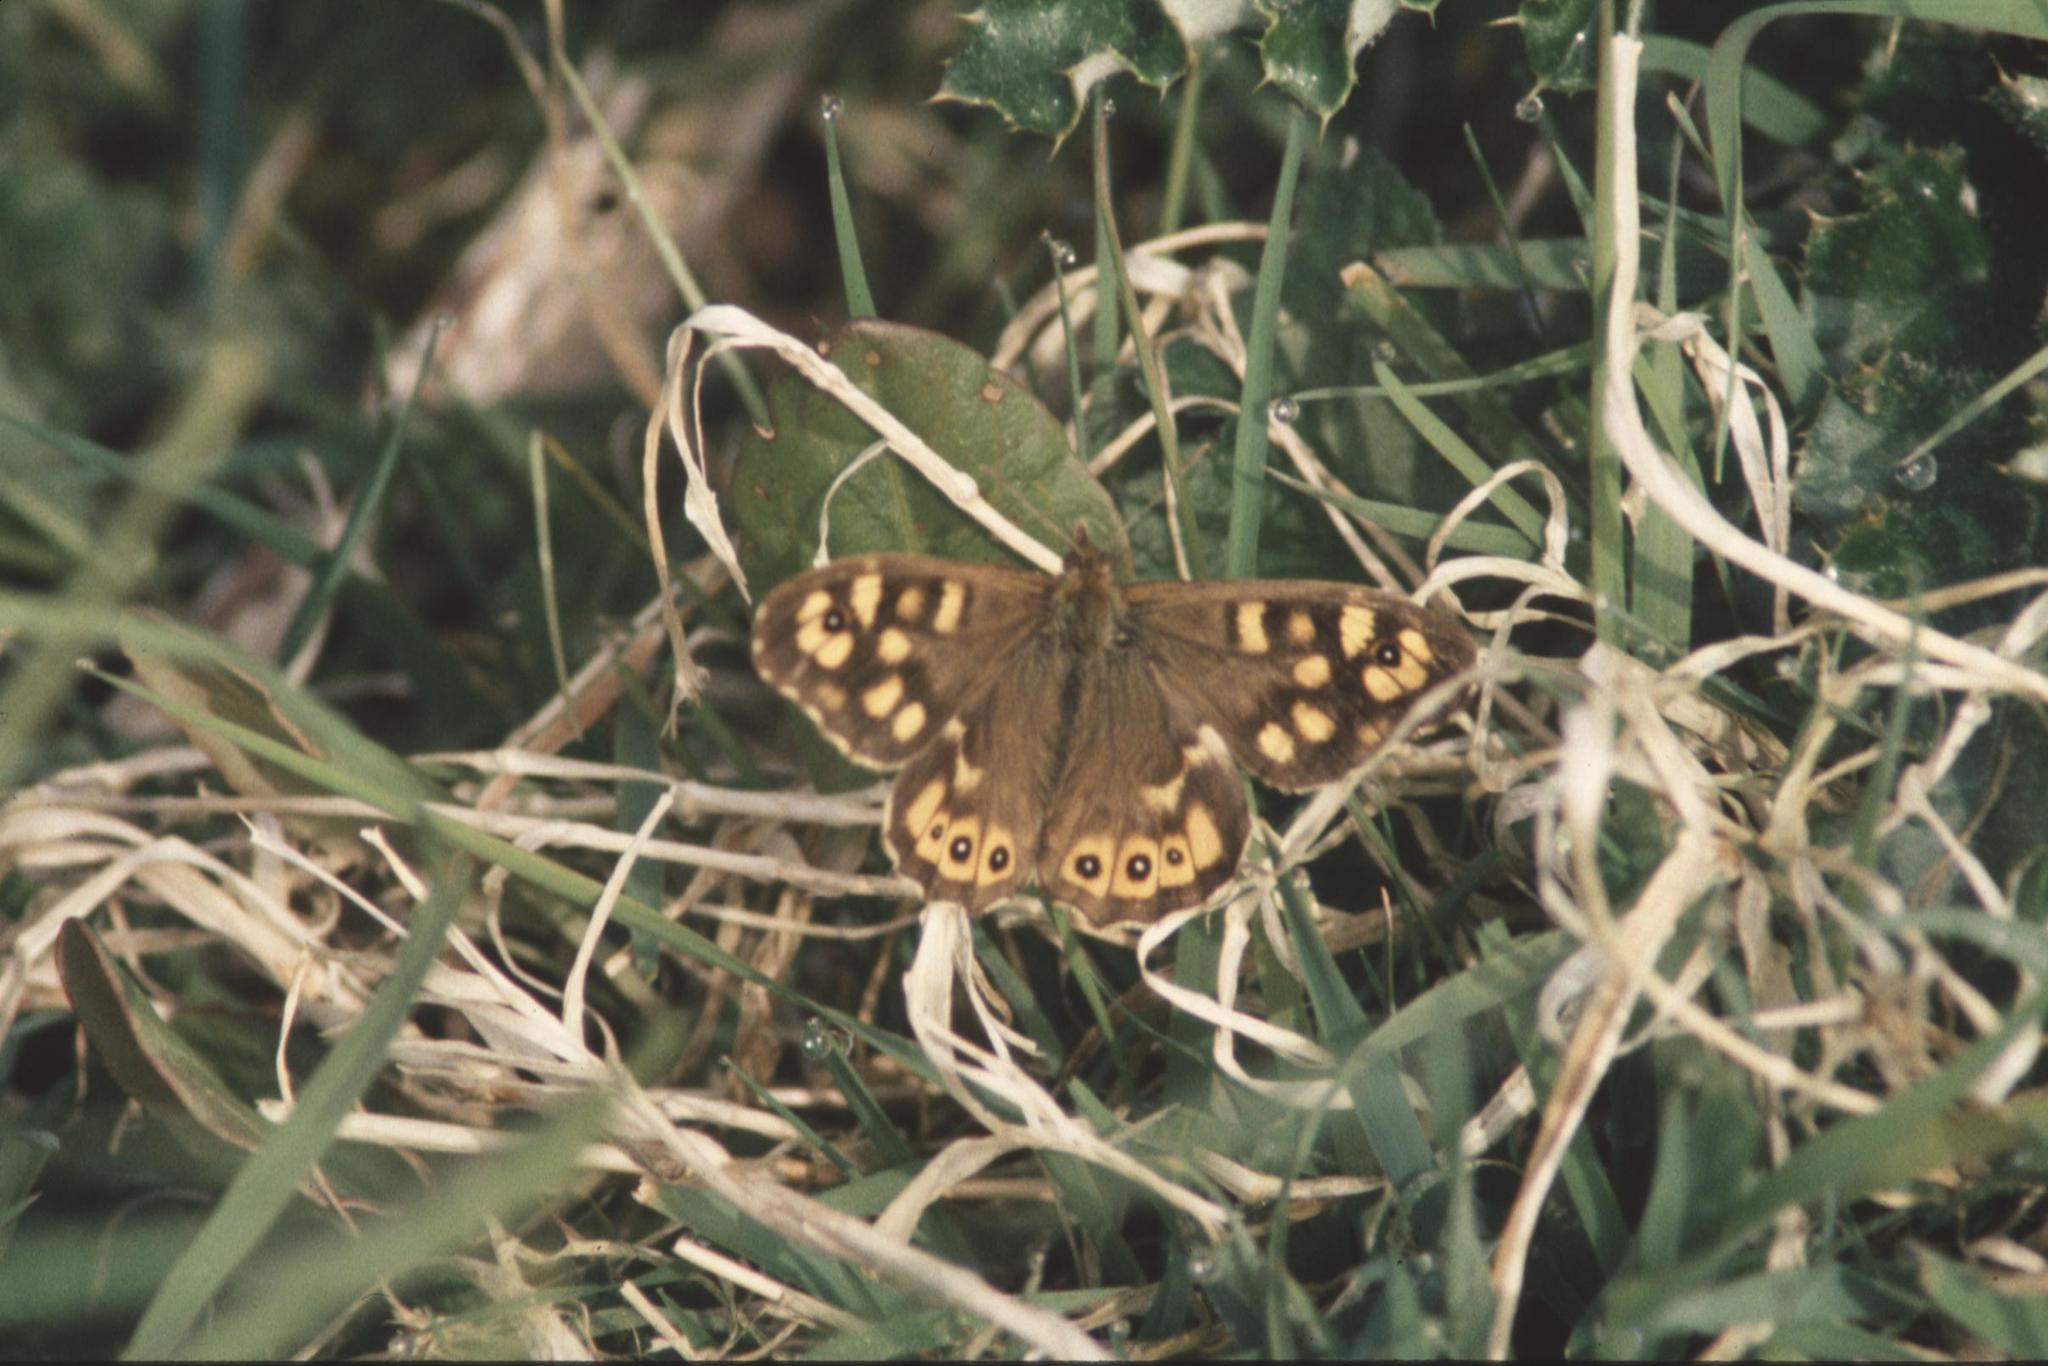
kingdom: Animalia
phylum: Arthropoda
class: Insecta
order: Lepidoptera
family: Nymphalidae
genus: Pararge
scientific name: Pararge aegeria
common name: Speckled wood
